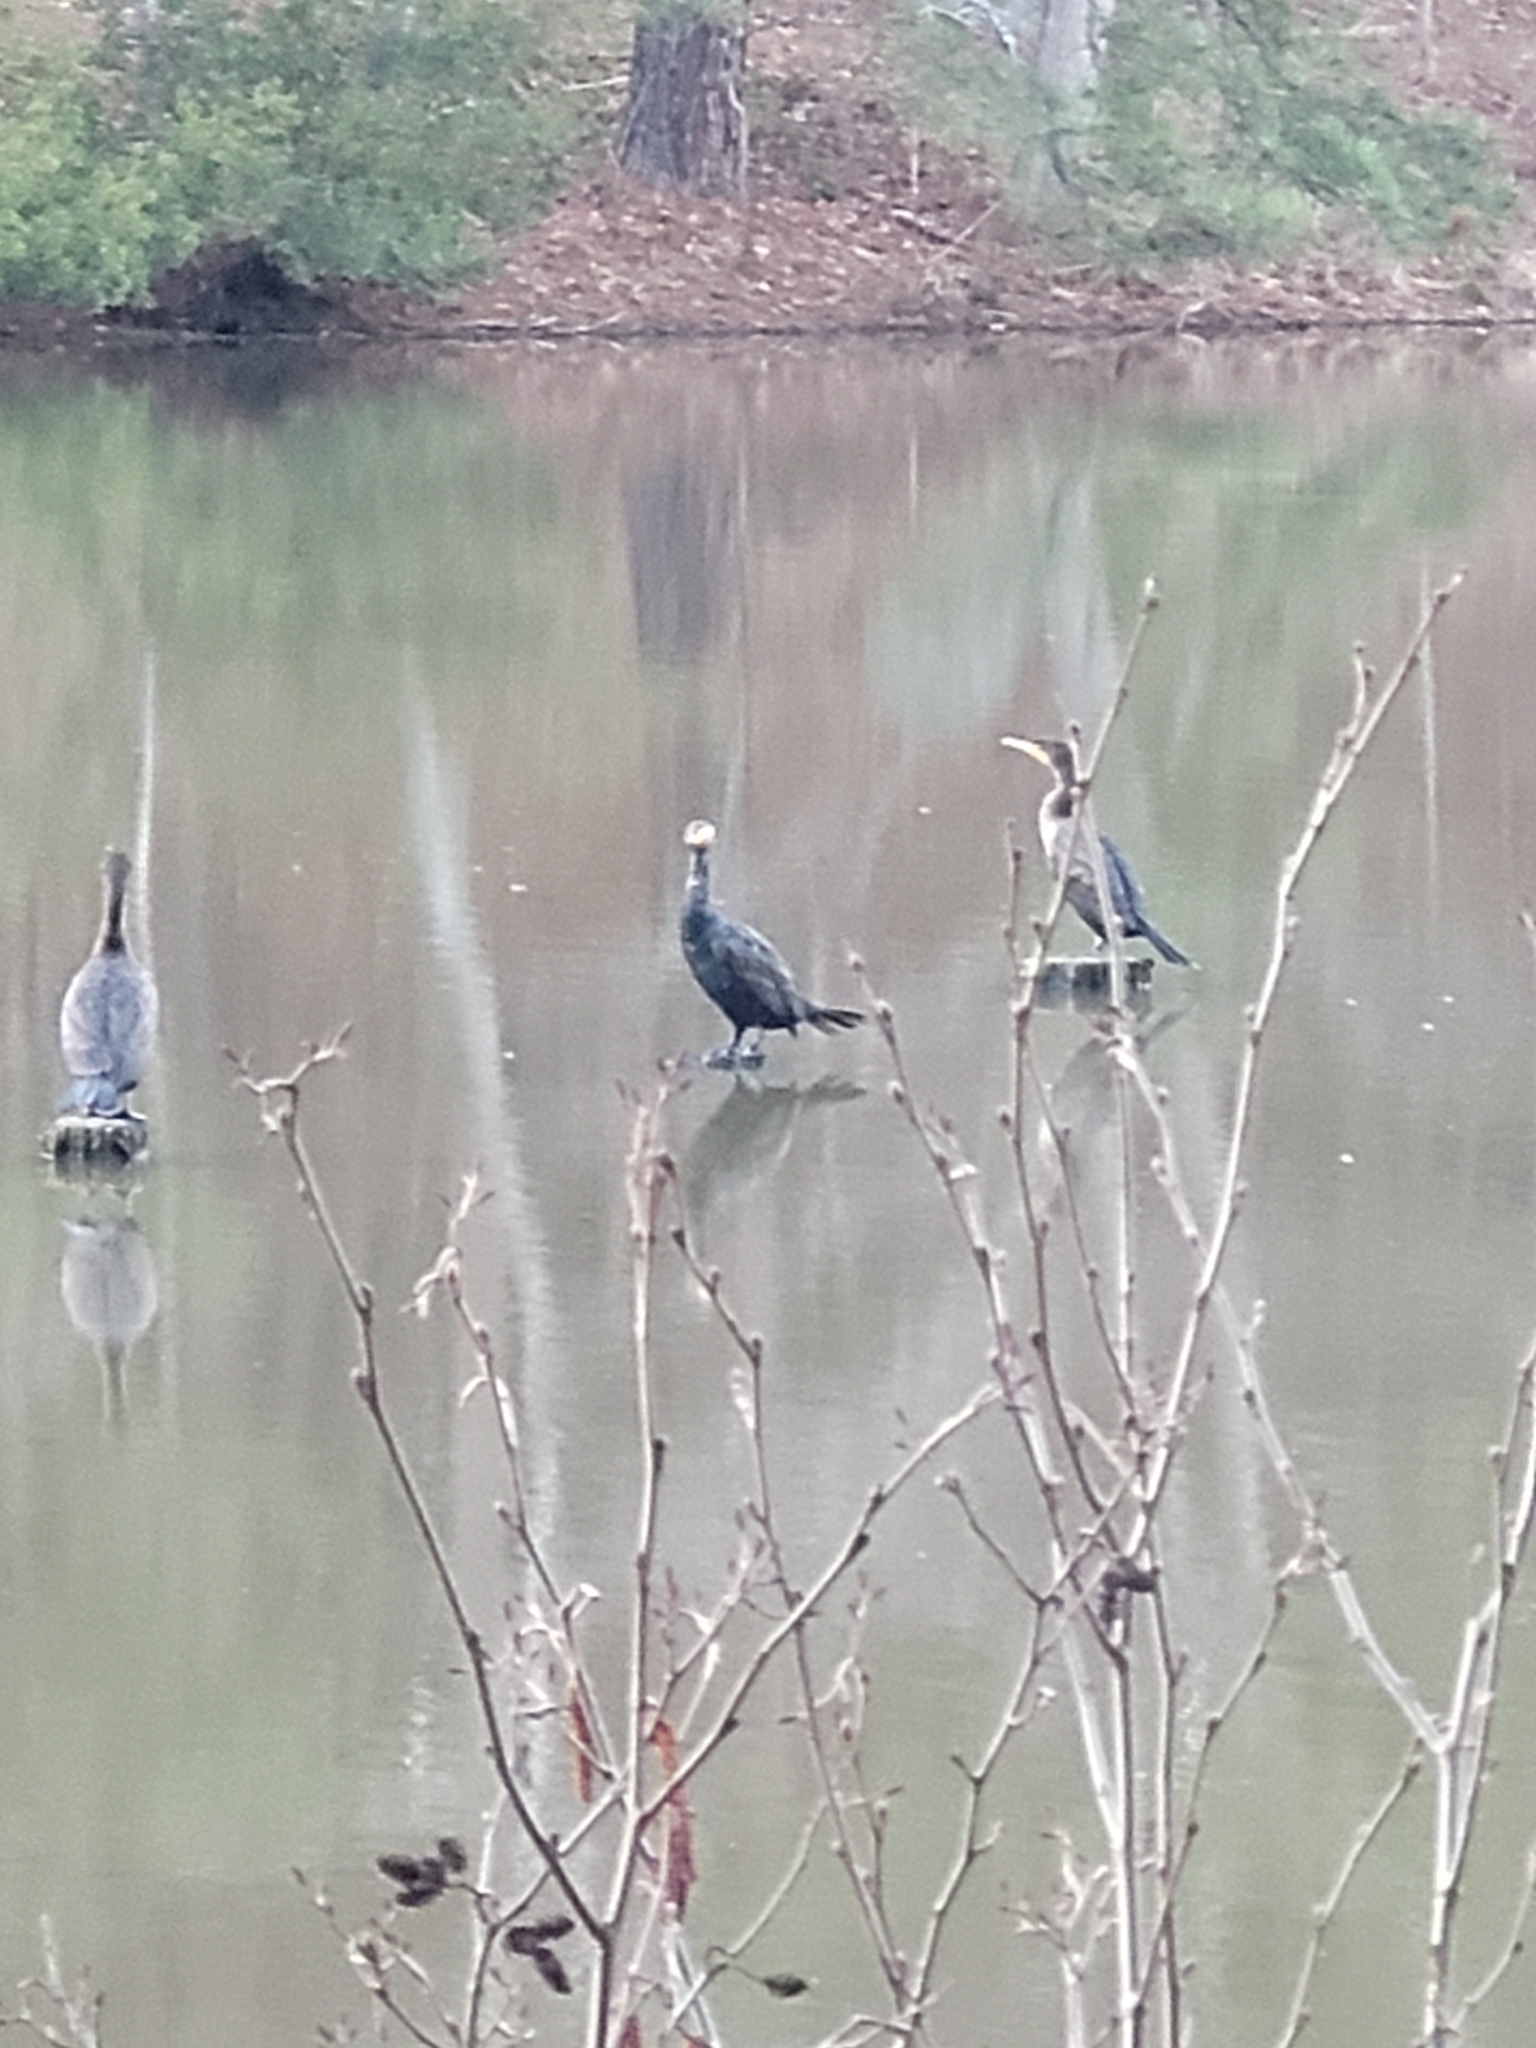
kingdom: Animalia
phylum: Chordata
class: Aves
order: Suliformes
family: Phalacrocoracidae
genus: Phalacrocorax
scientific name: Phalacrocorax auritus
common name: Double-crested cormorant
